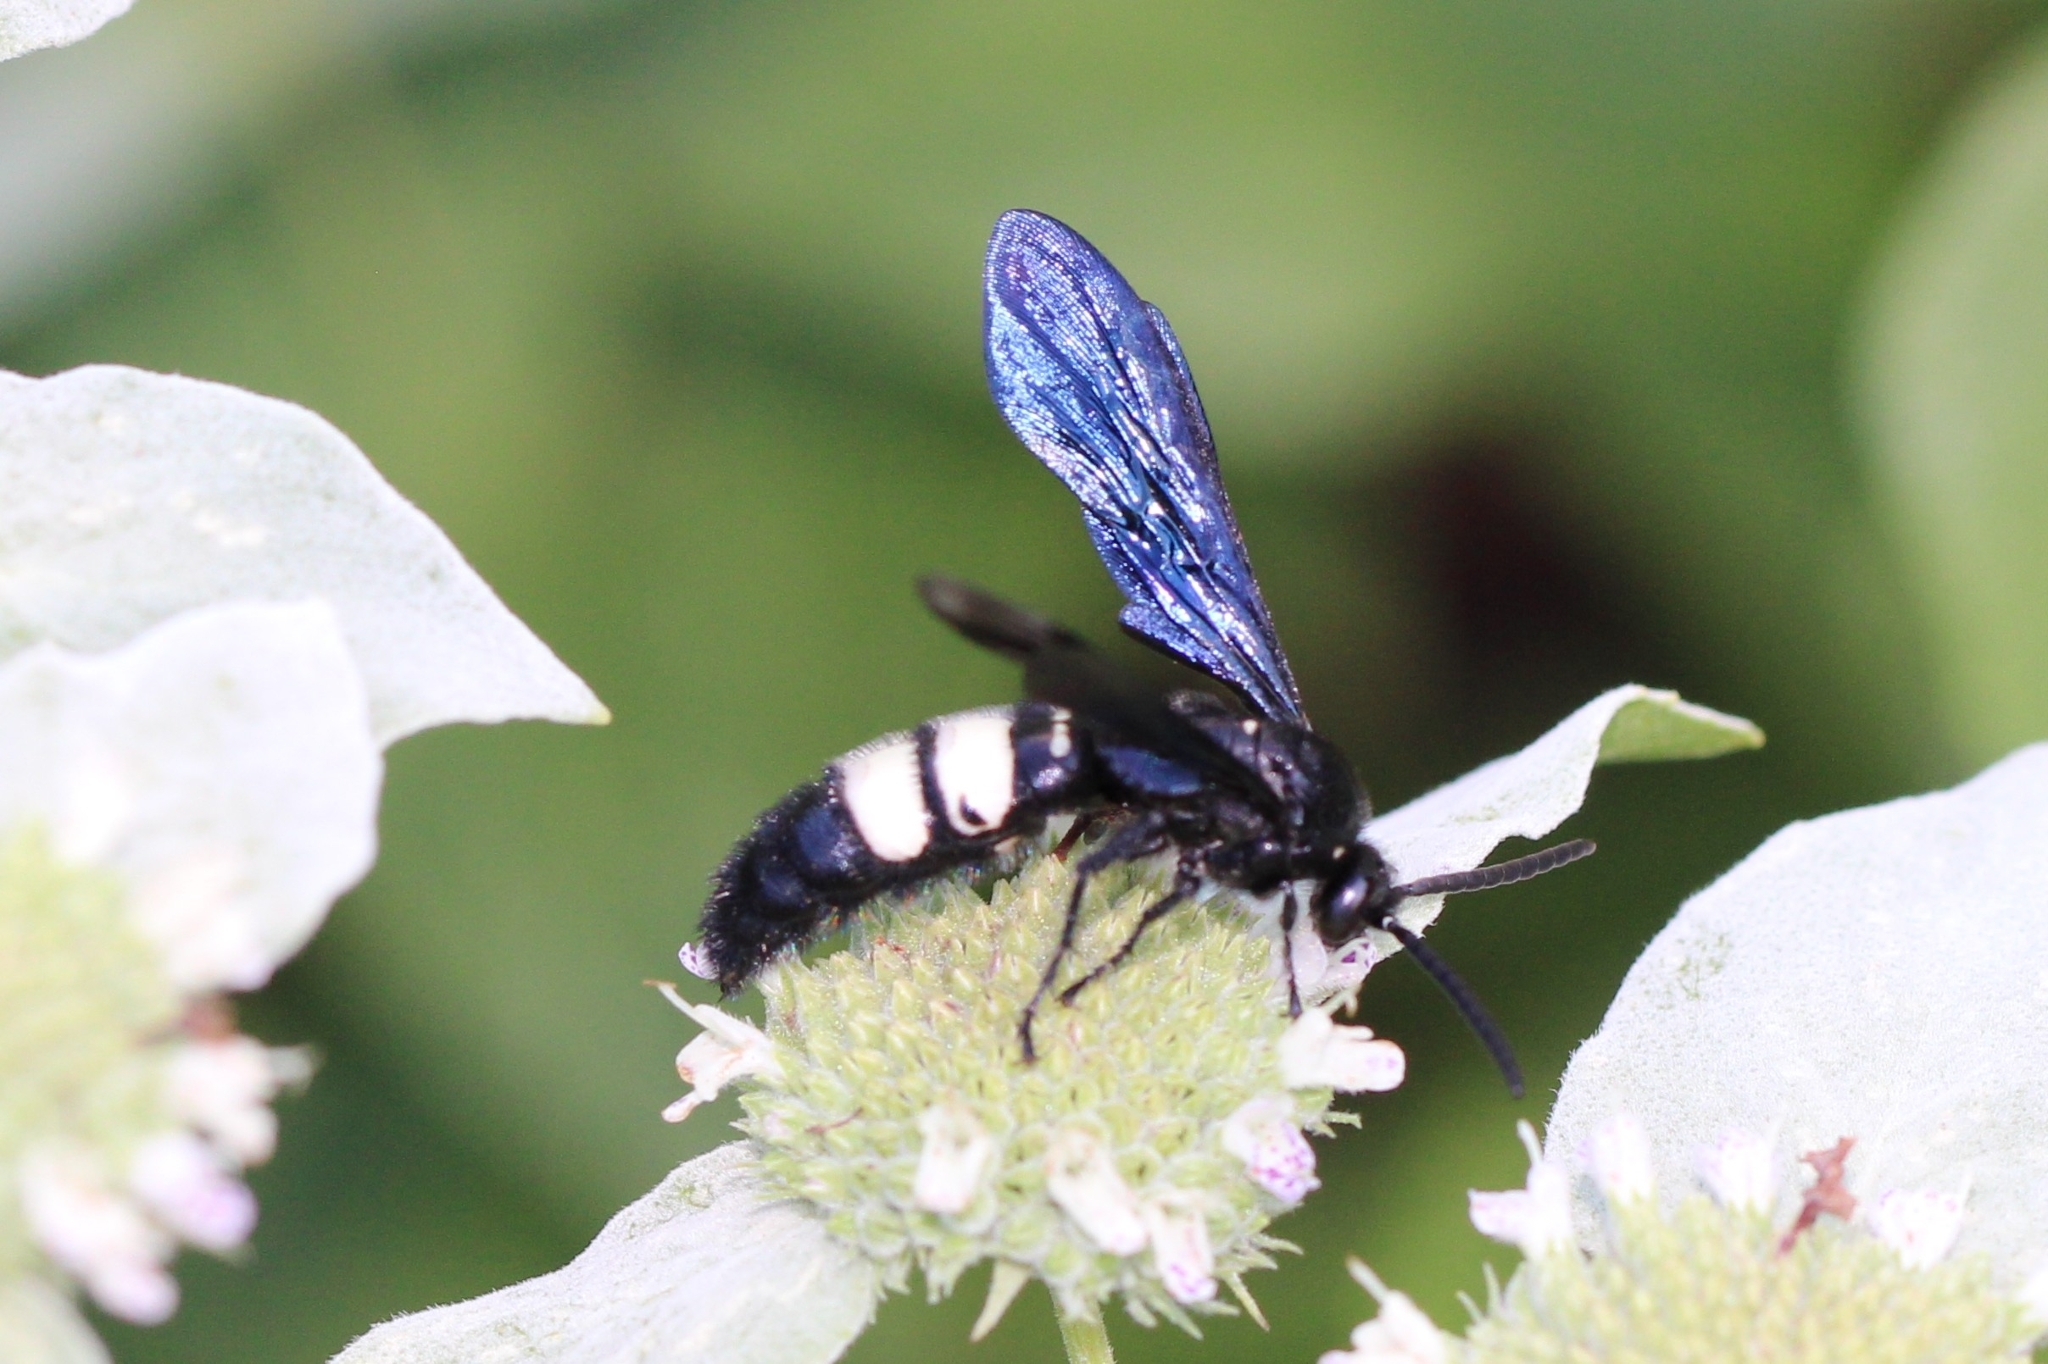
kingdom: Animalia
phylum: Arthropoda
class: Insecta
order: Hymenoptera
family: Scoliidae
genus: Scolia
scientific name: Scolia bicincta
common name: Double-banded scoliid wasp
